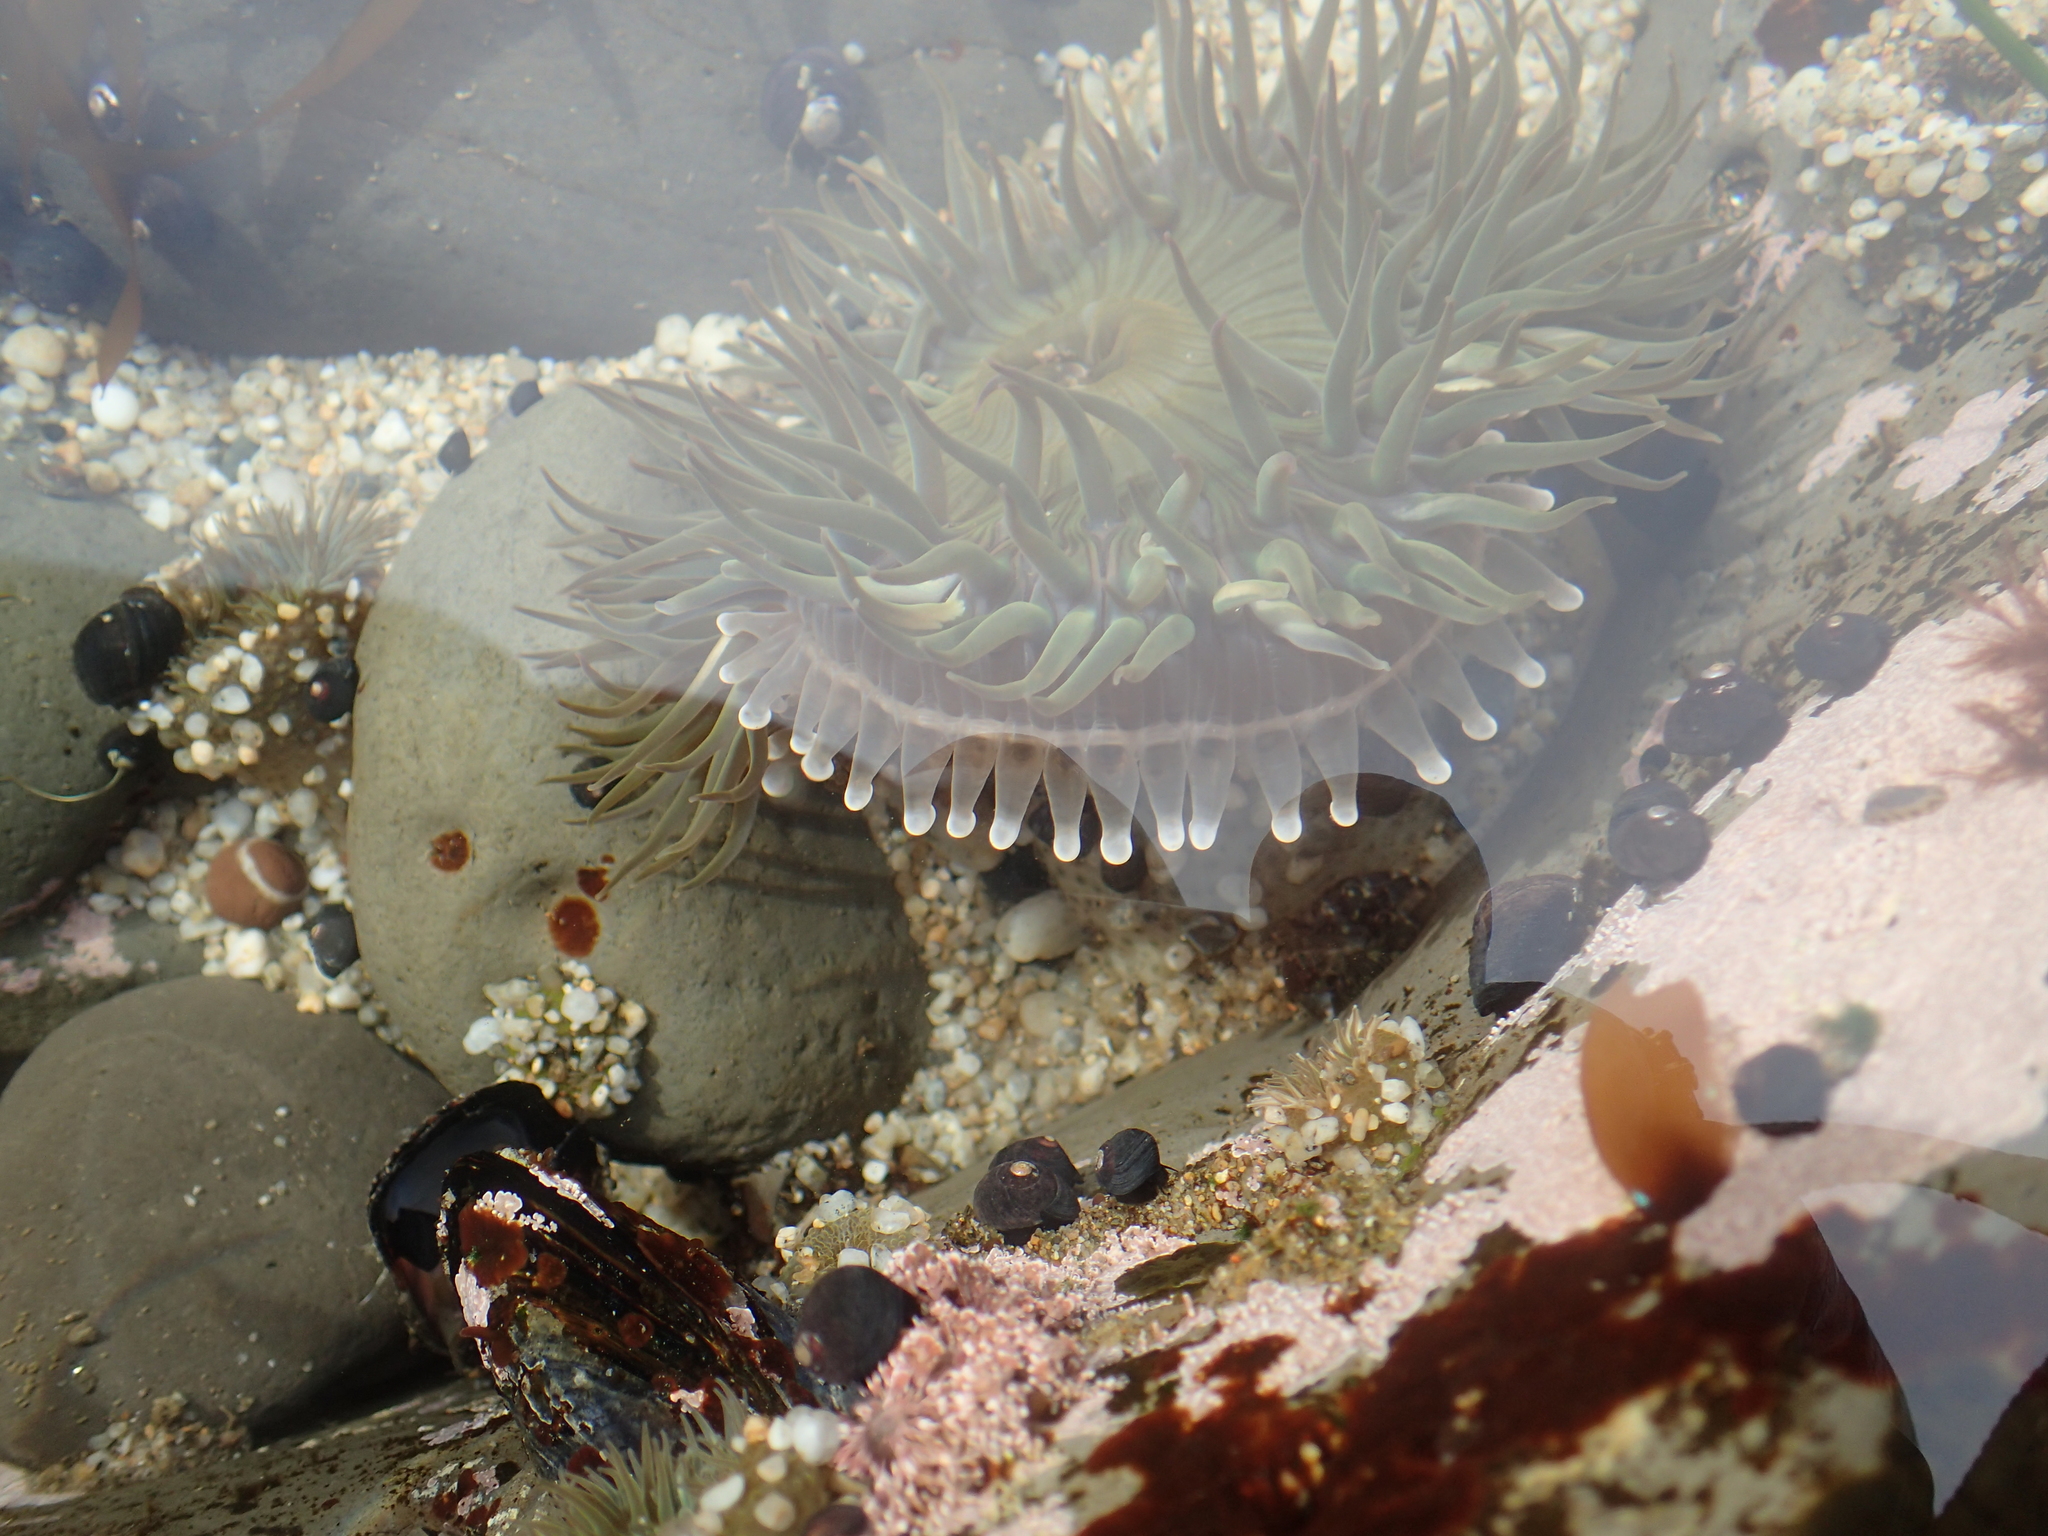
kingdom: Animalia
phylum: Cnidaria
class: Anthozoa
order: Actiniaria
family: Actiniidae
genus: Anthopleura
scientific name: Anthopleura sola
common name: Sun anemone
